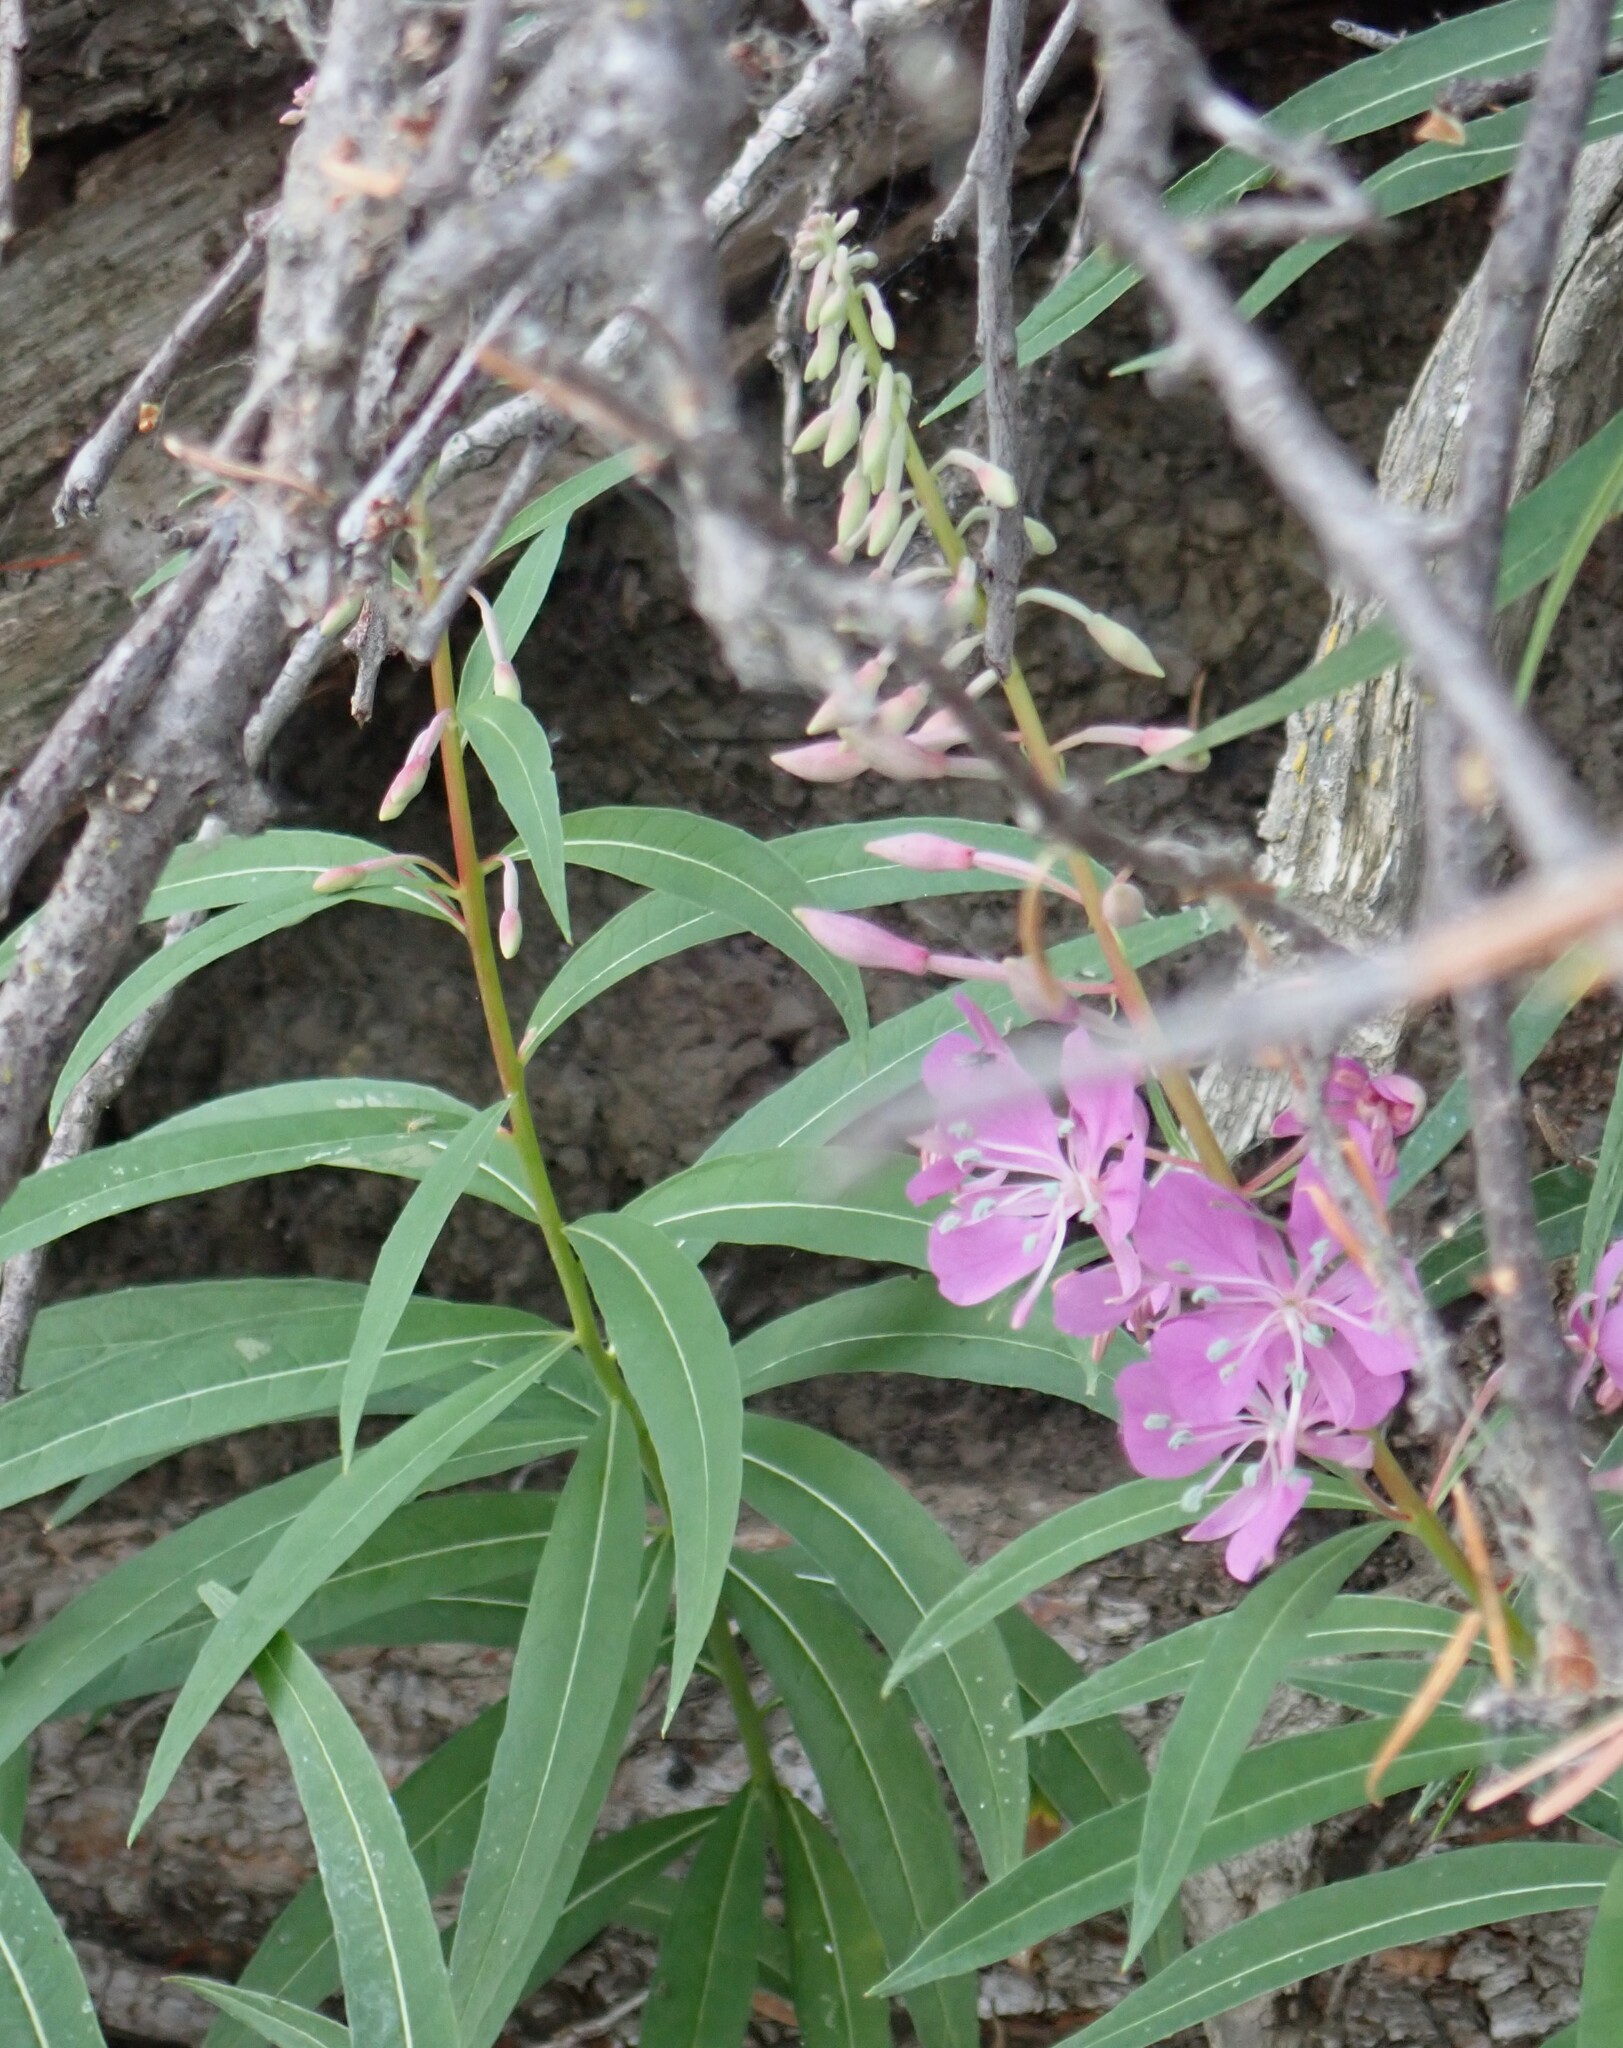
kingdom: Plantae
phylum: Tracheophyta
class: Magnoliopsida
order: Myrtales
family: Onagraceae
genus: Chamaenerion
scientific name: Chamaenerion angustifolium
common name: Fireweed
